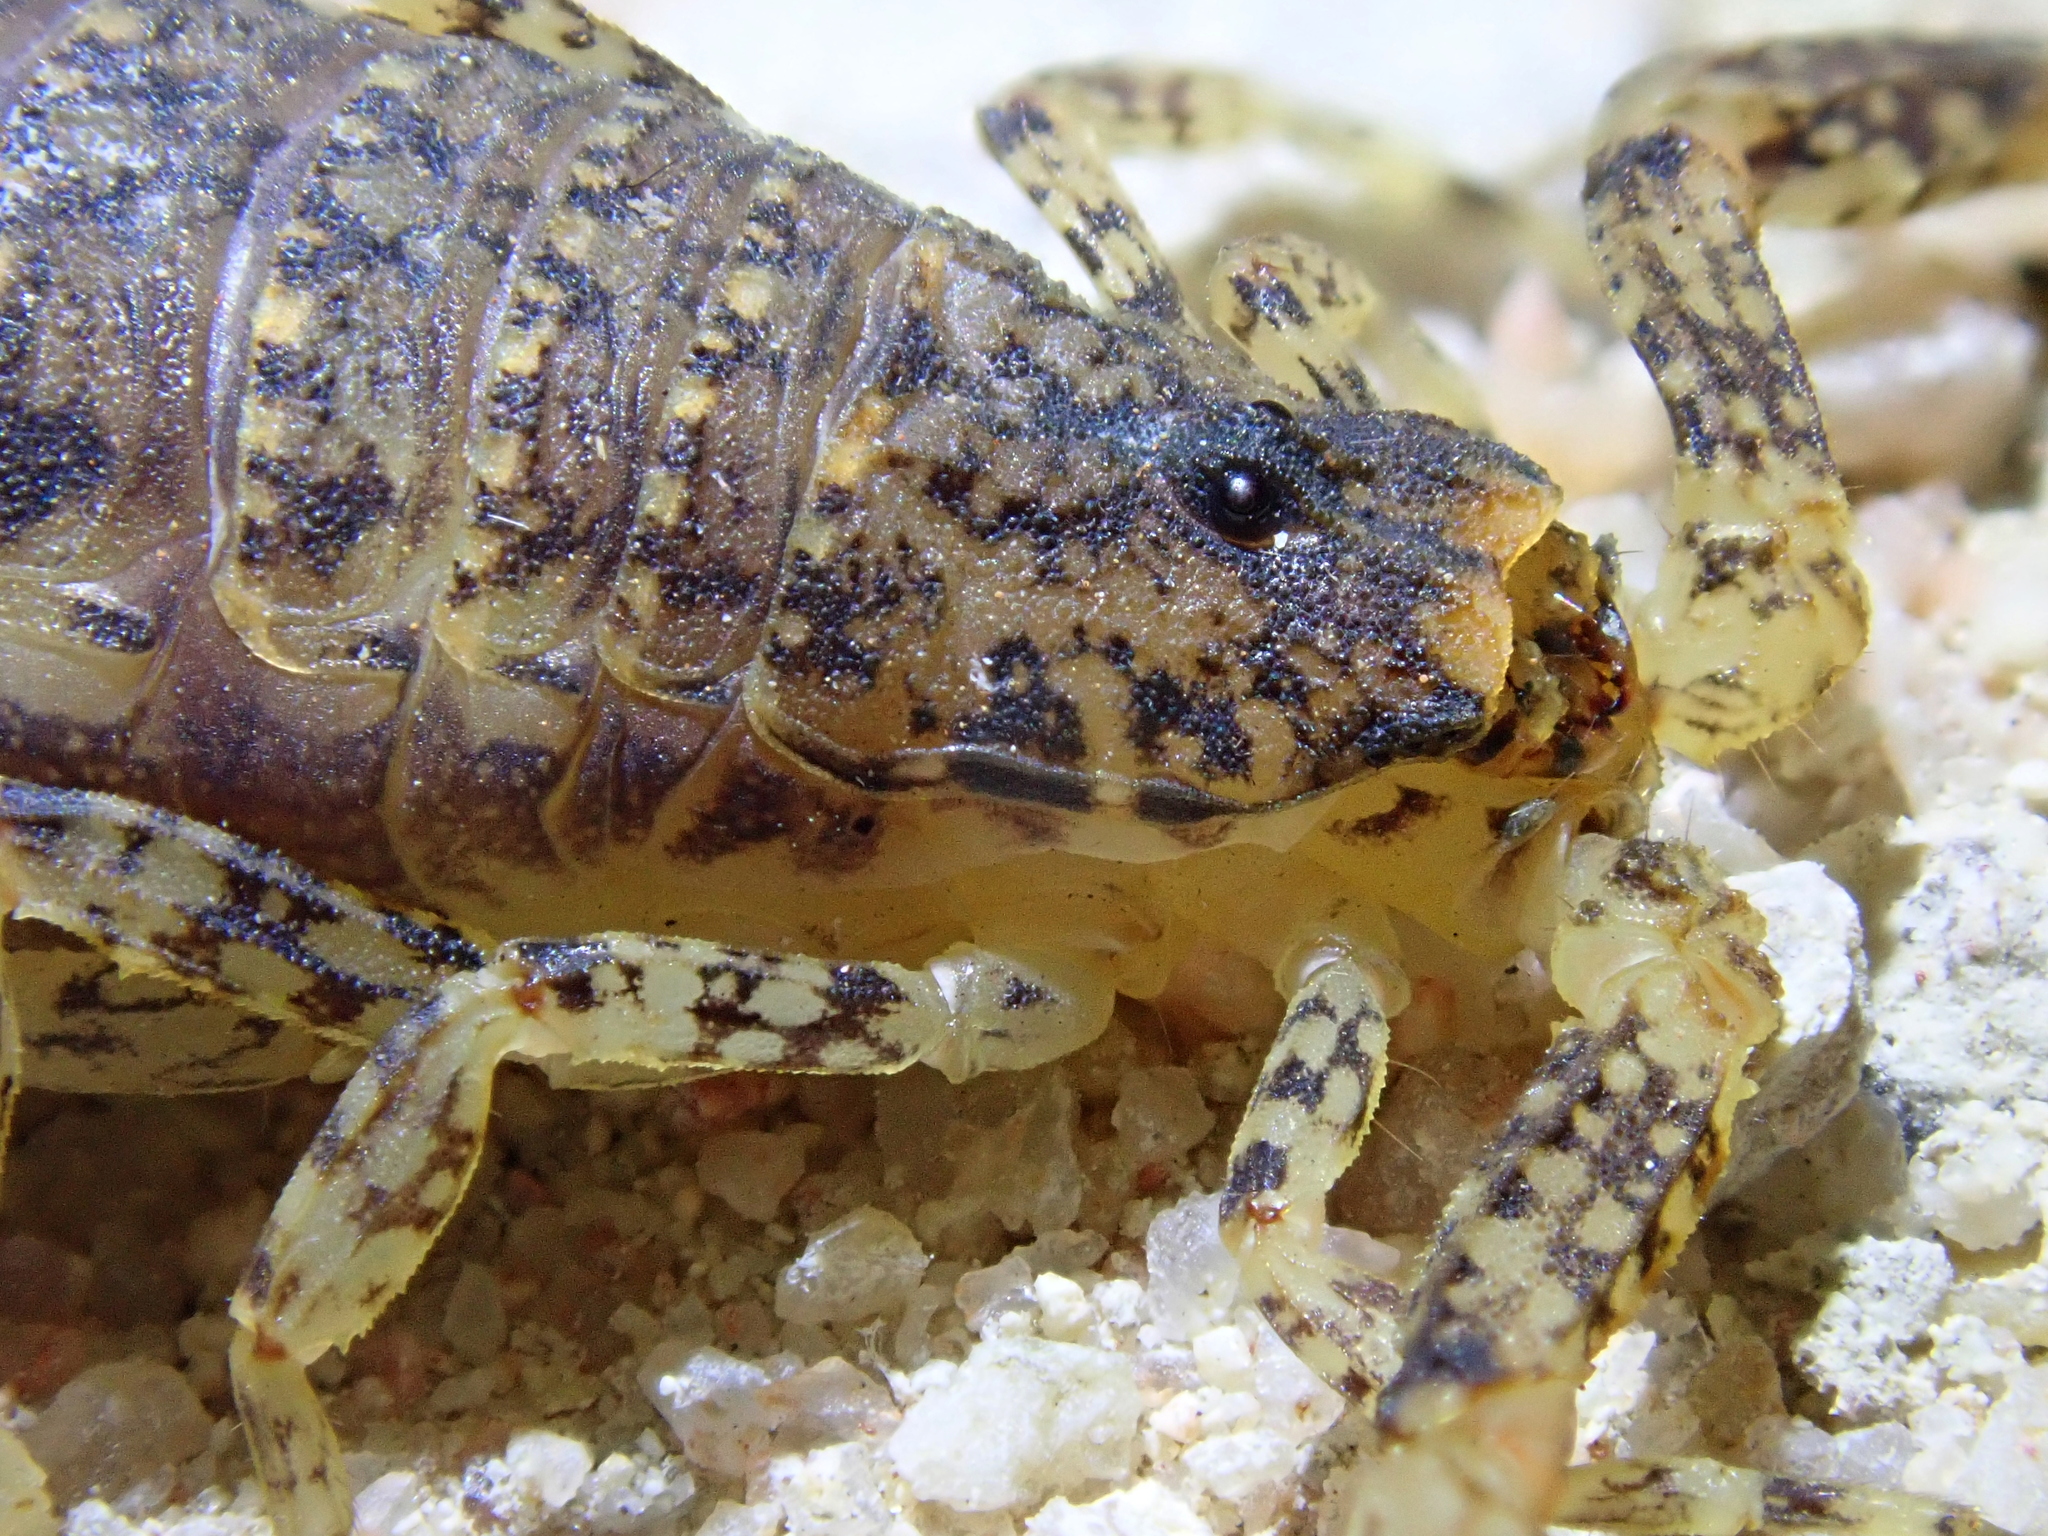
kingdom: Animalia
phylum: Arthropoda
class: Arachnida
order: Scorpiones
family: Buthidae
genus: Tityus
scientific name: Tityus mattogrossensis
